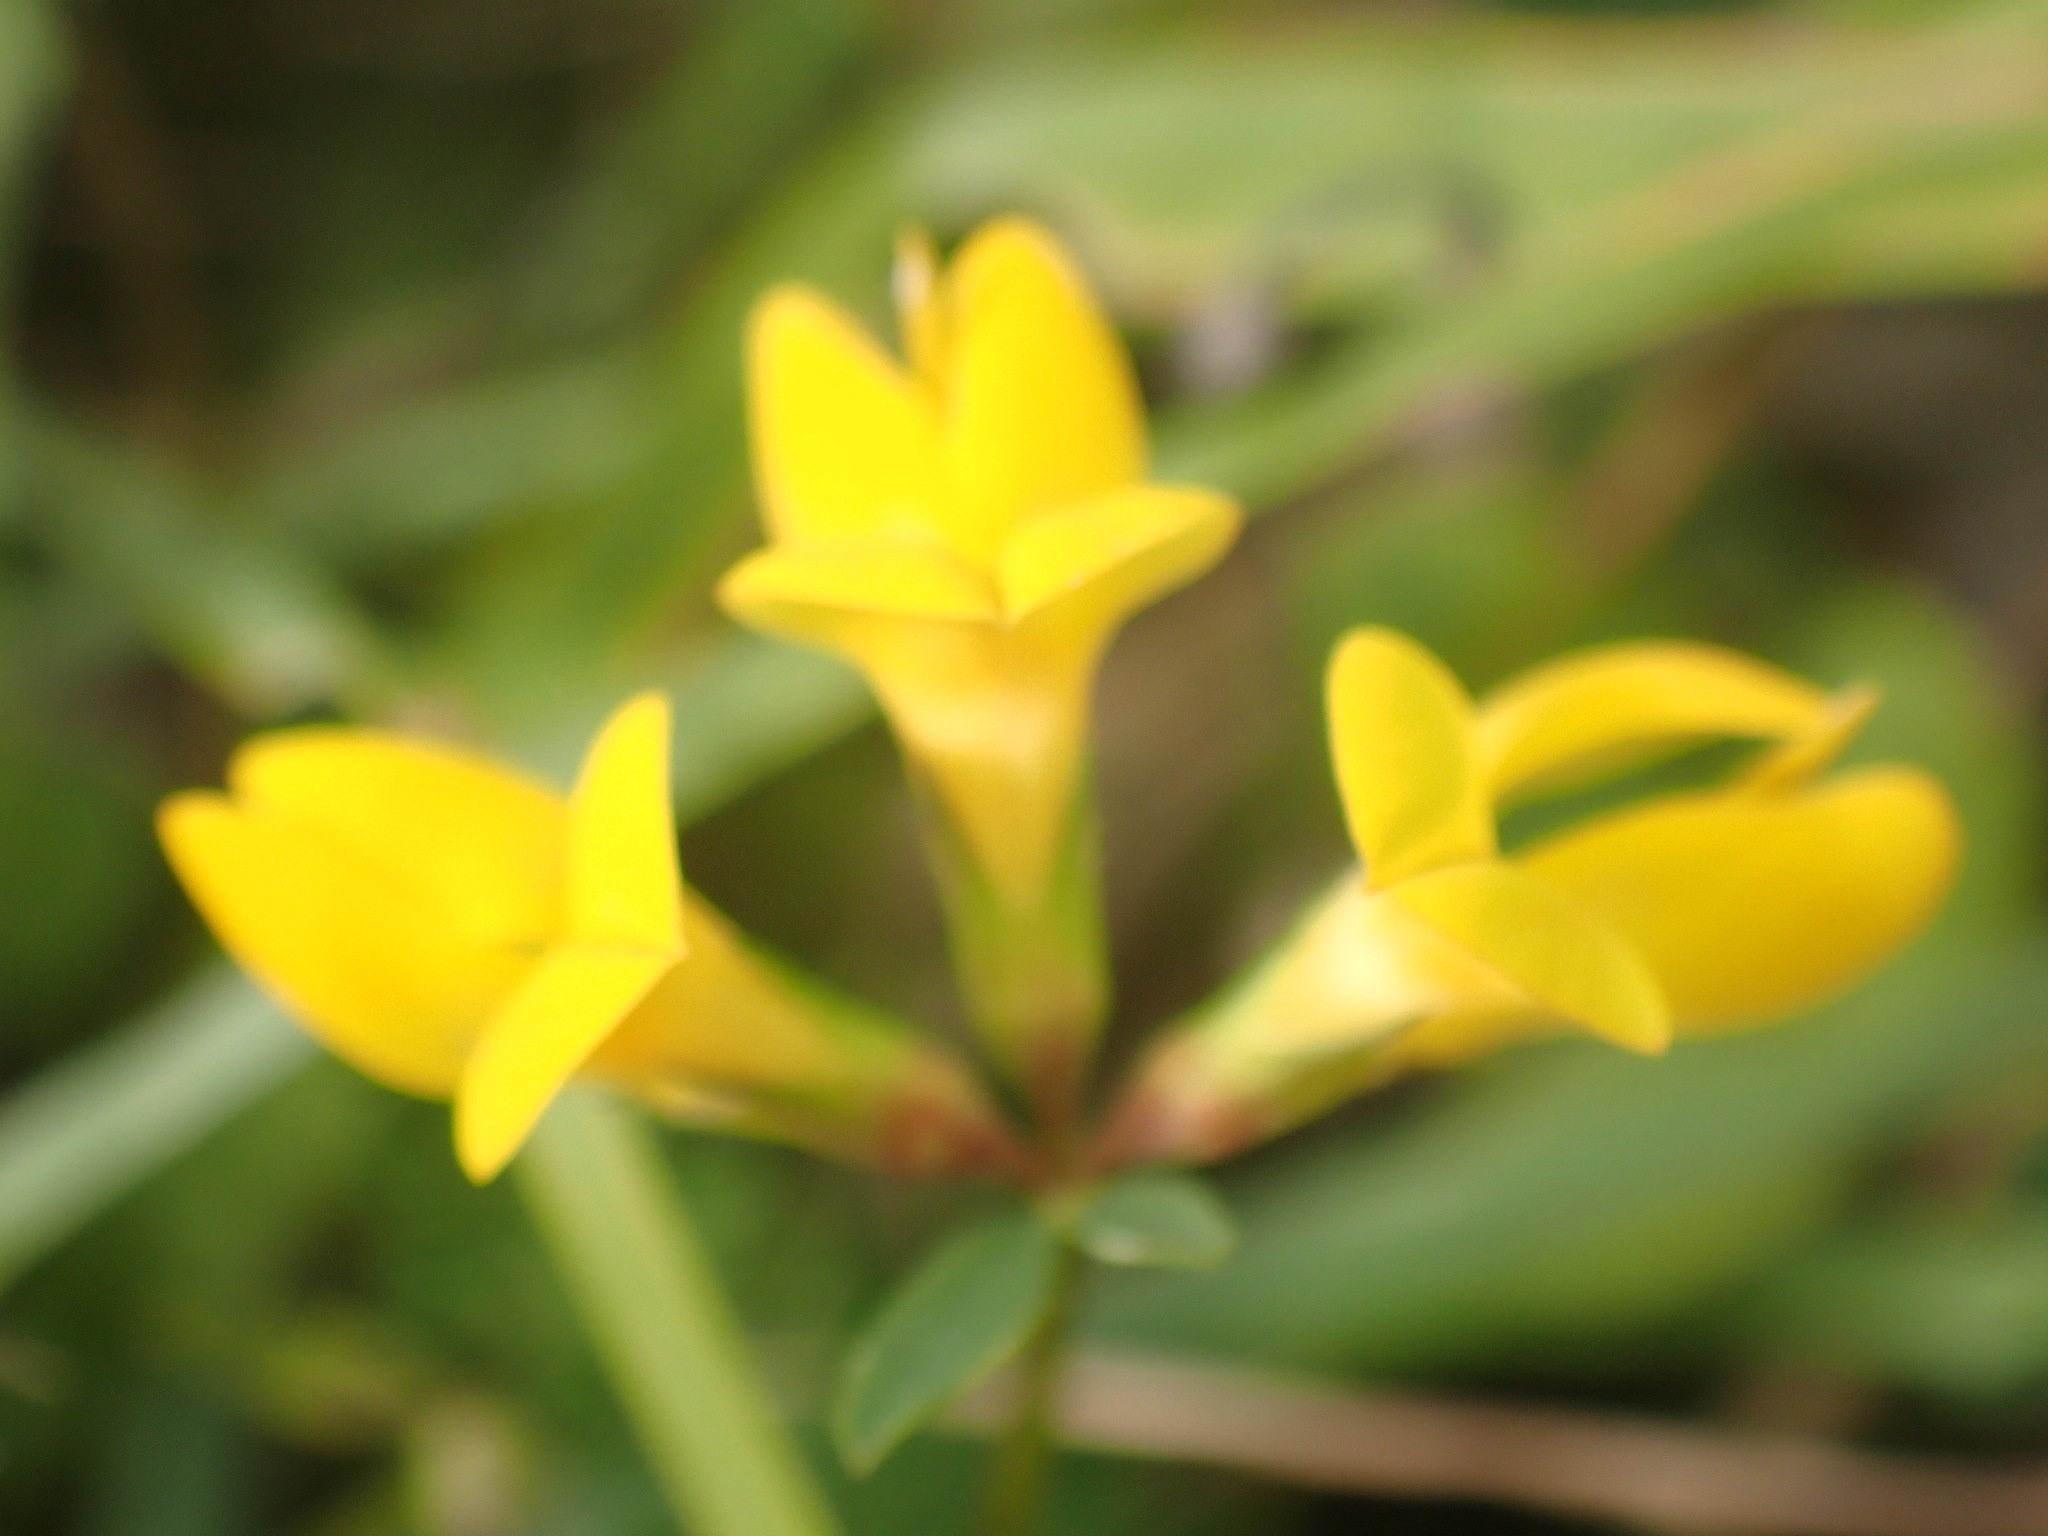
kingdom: Plantae
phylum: Tracheophyta
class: Magnoliopsida
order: Fabales
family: Fabaceae
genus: Lotus
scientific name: Lotus corniculatus
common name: Common bird's-foot-trefoil
